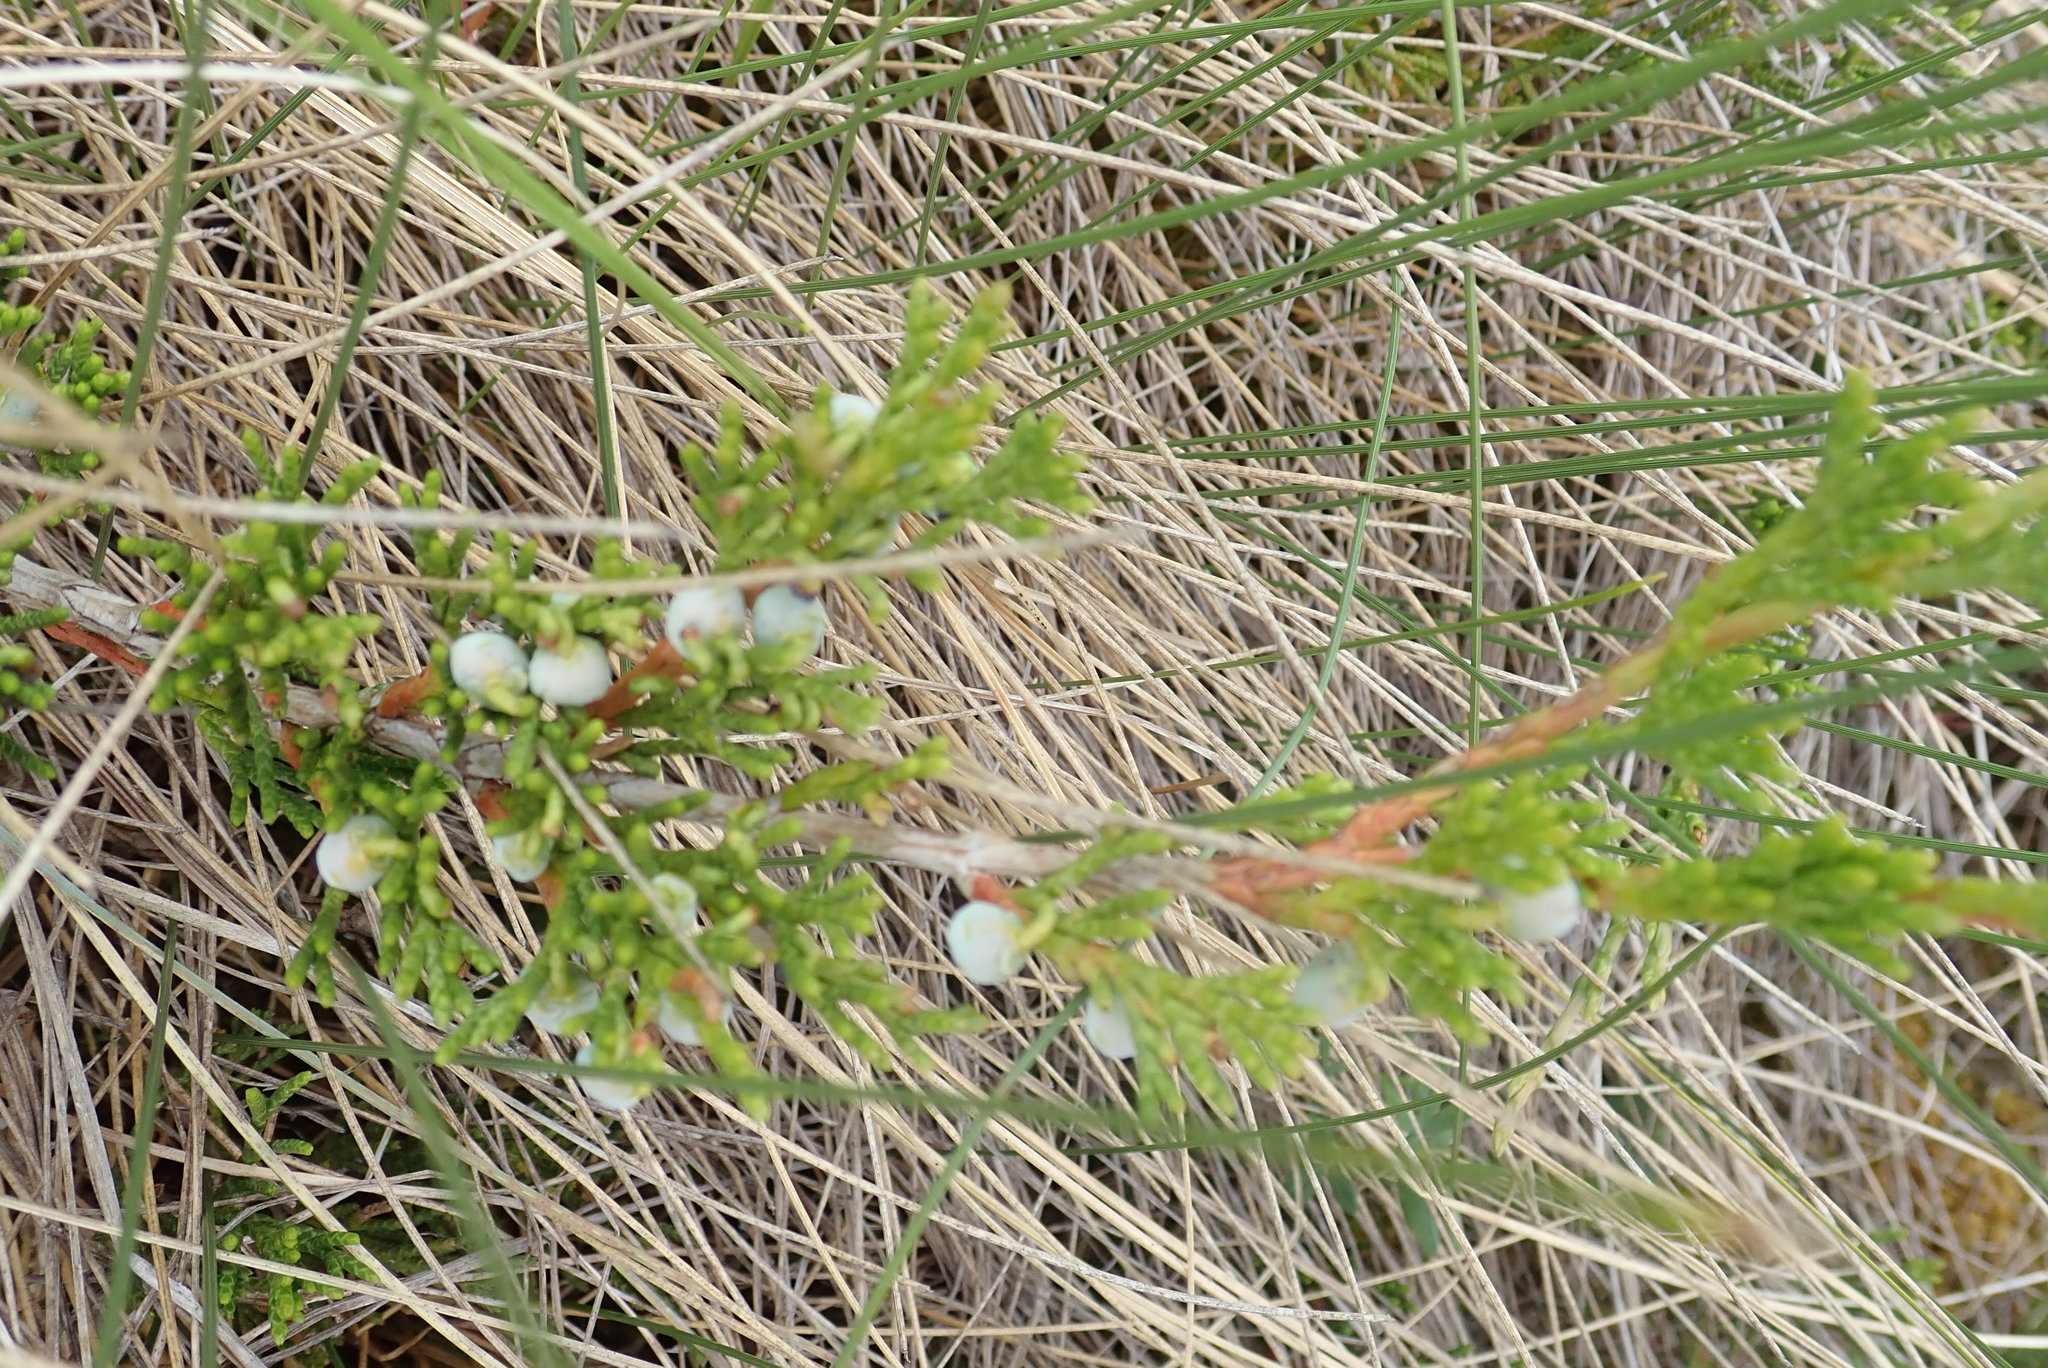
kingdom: Plantae
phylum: Tracheophyta
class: Pinopsida
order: Pinales
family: Cupressaceae
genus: Juniperus
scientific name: Juniperus horizontalis
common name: Creeping juniper
